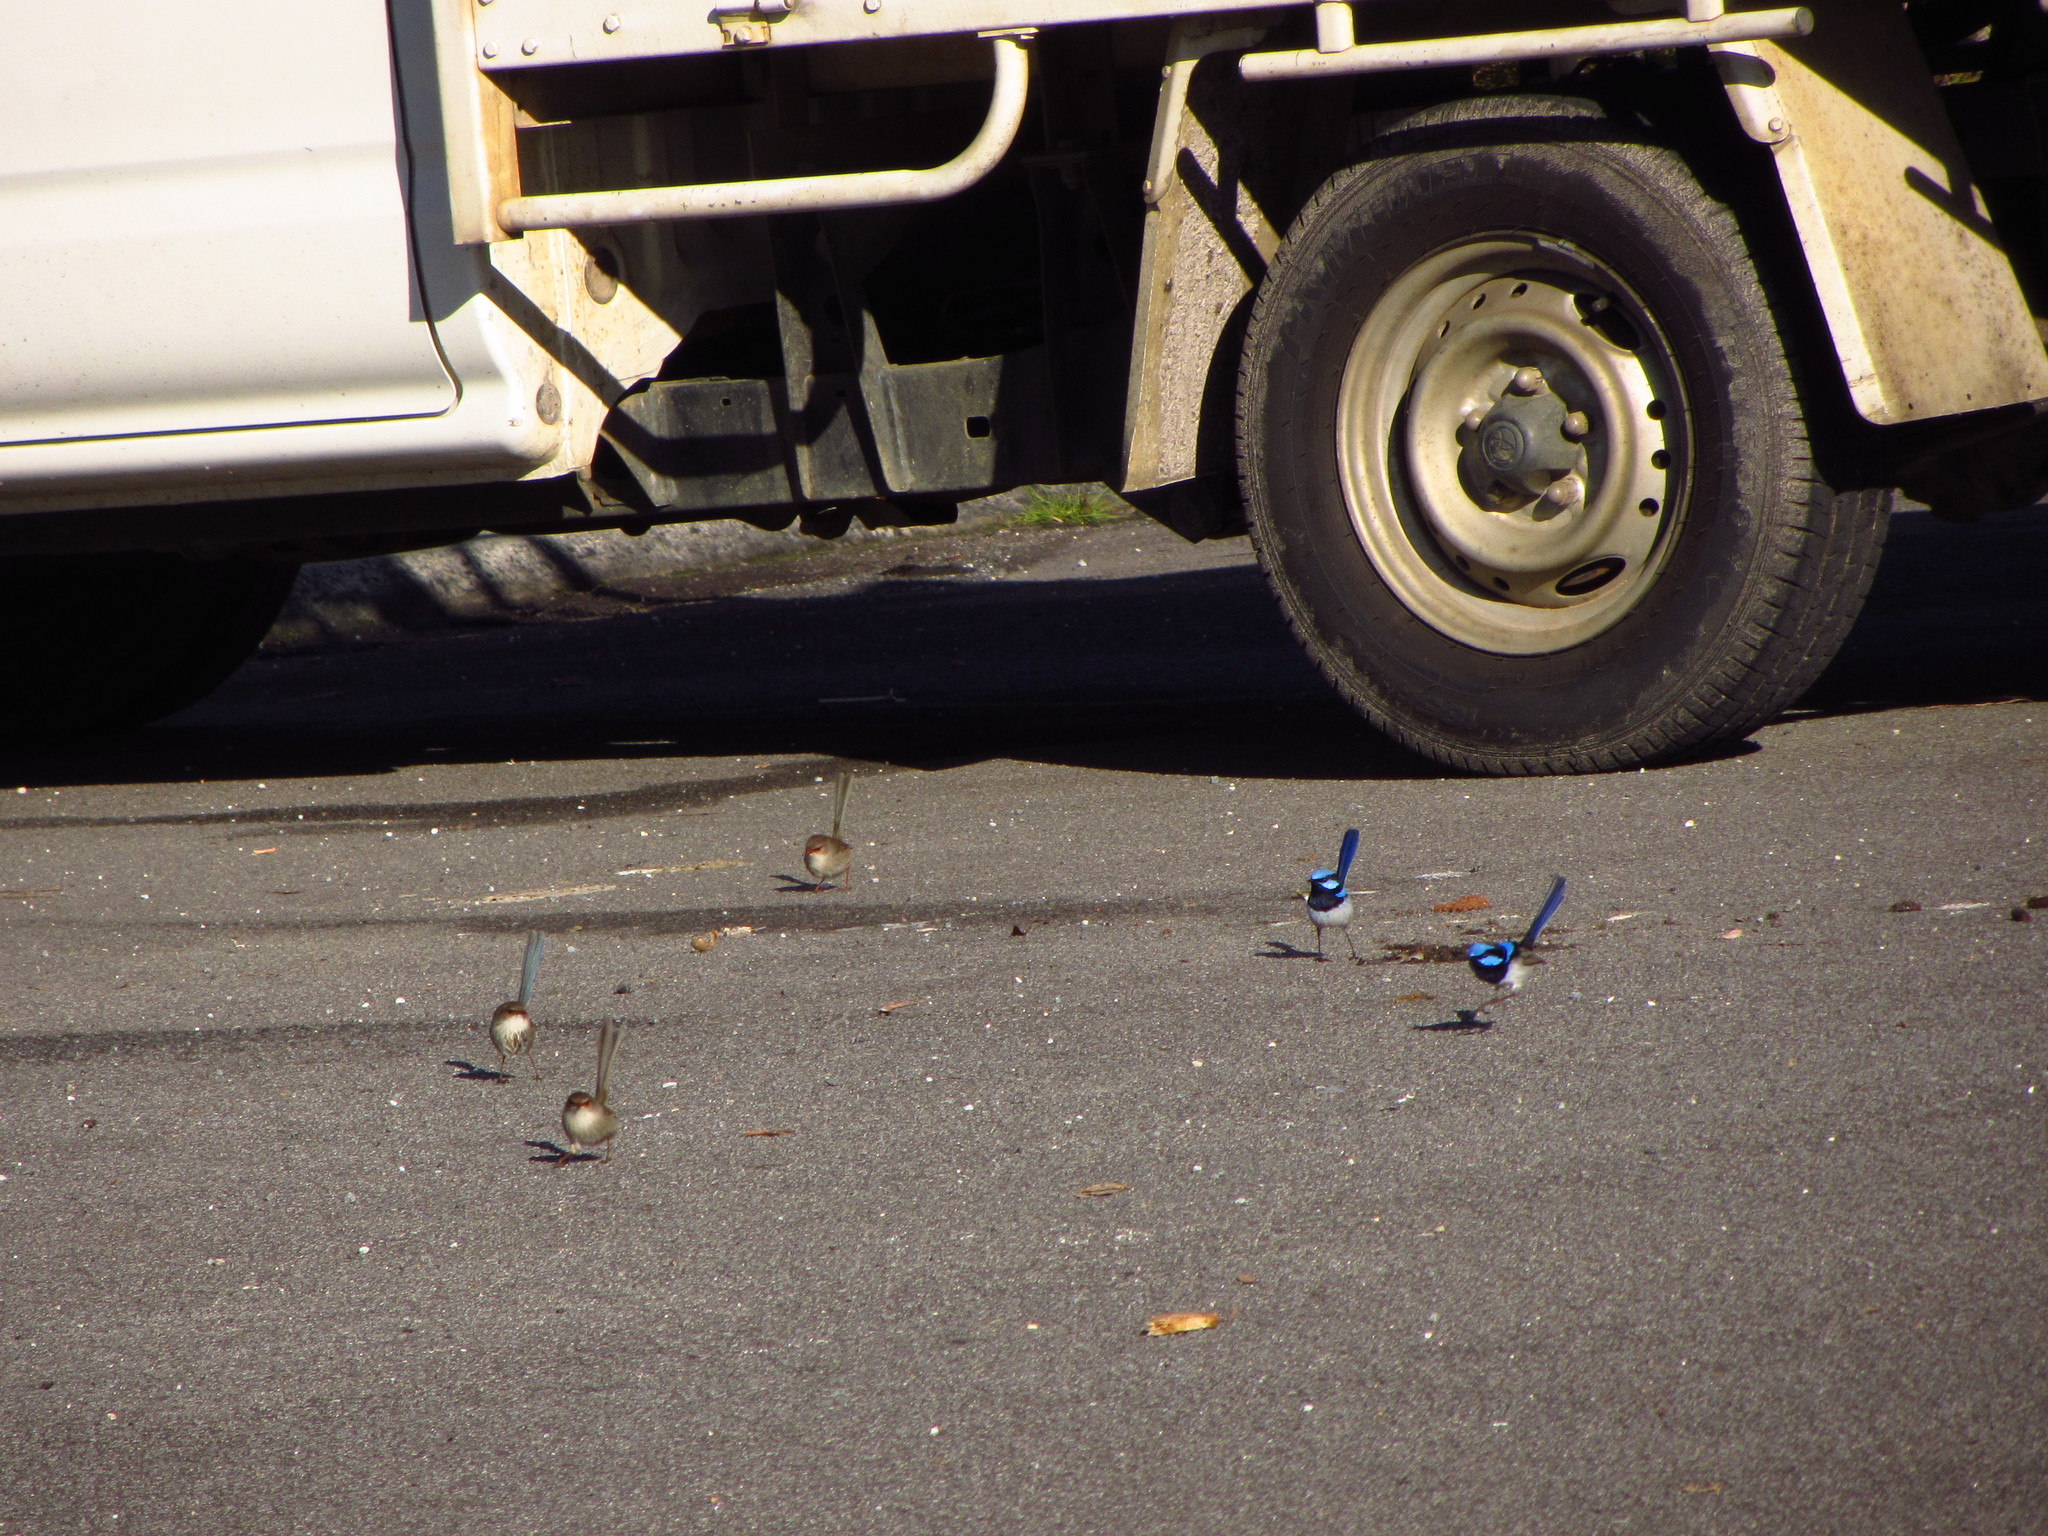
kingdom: Animalia
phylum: Chordata
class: Aves
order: Passeriformes
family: Maluridae
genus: Malurus
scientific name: Malurus cyaneus
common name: Superb fairywren
